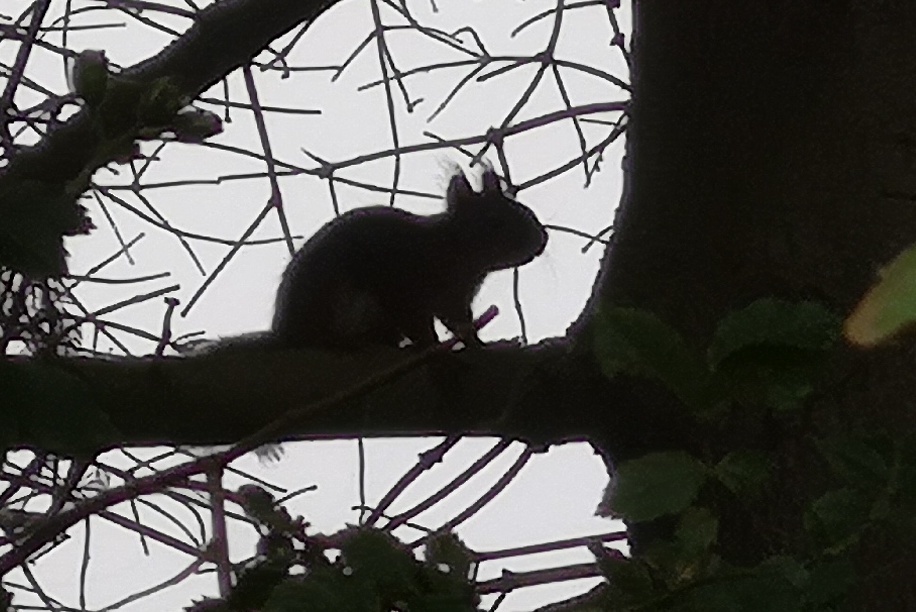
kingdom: Animalia
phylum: Chordata
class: Mammalia
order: Rodentia
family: Sciuridae
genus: Sciurus
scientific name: Sciurus vulgaris
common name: Eurasian red squirrel
